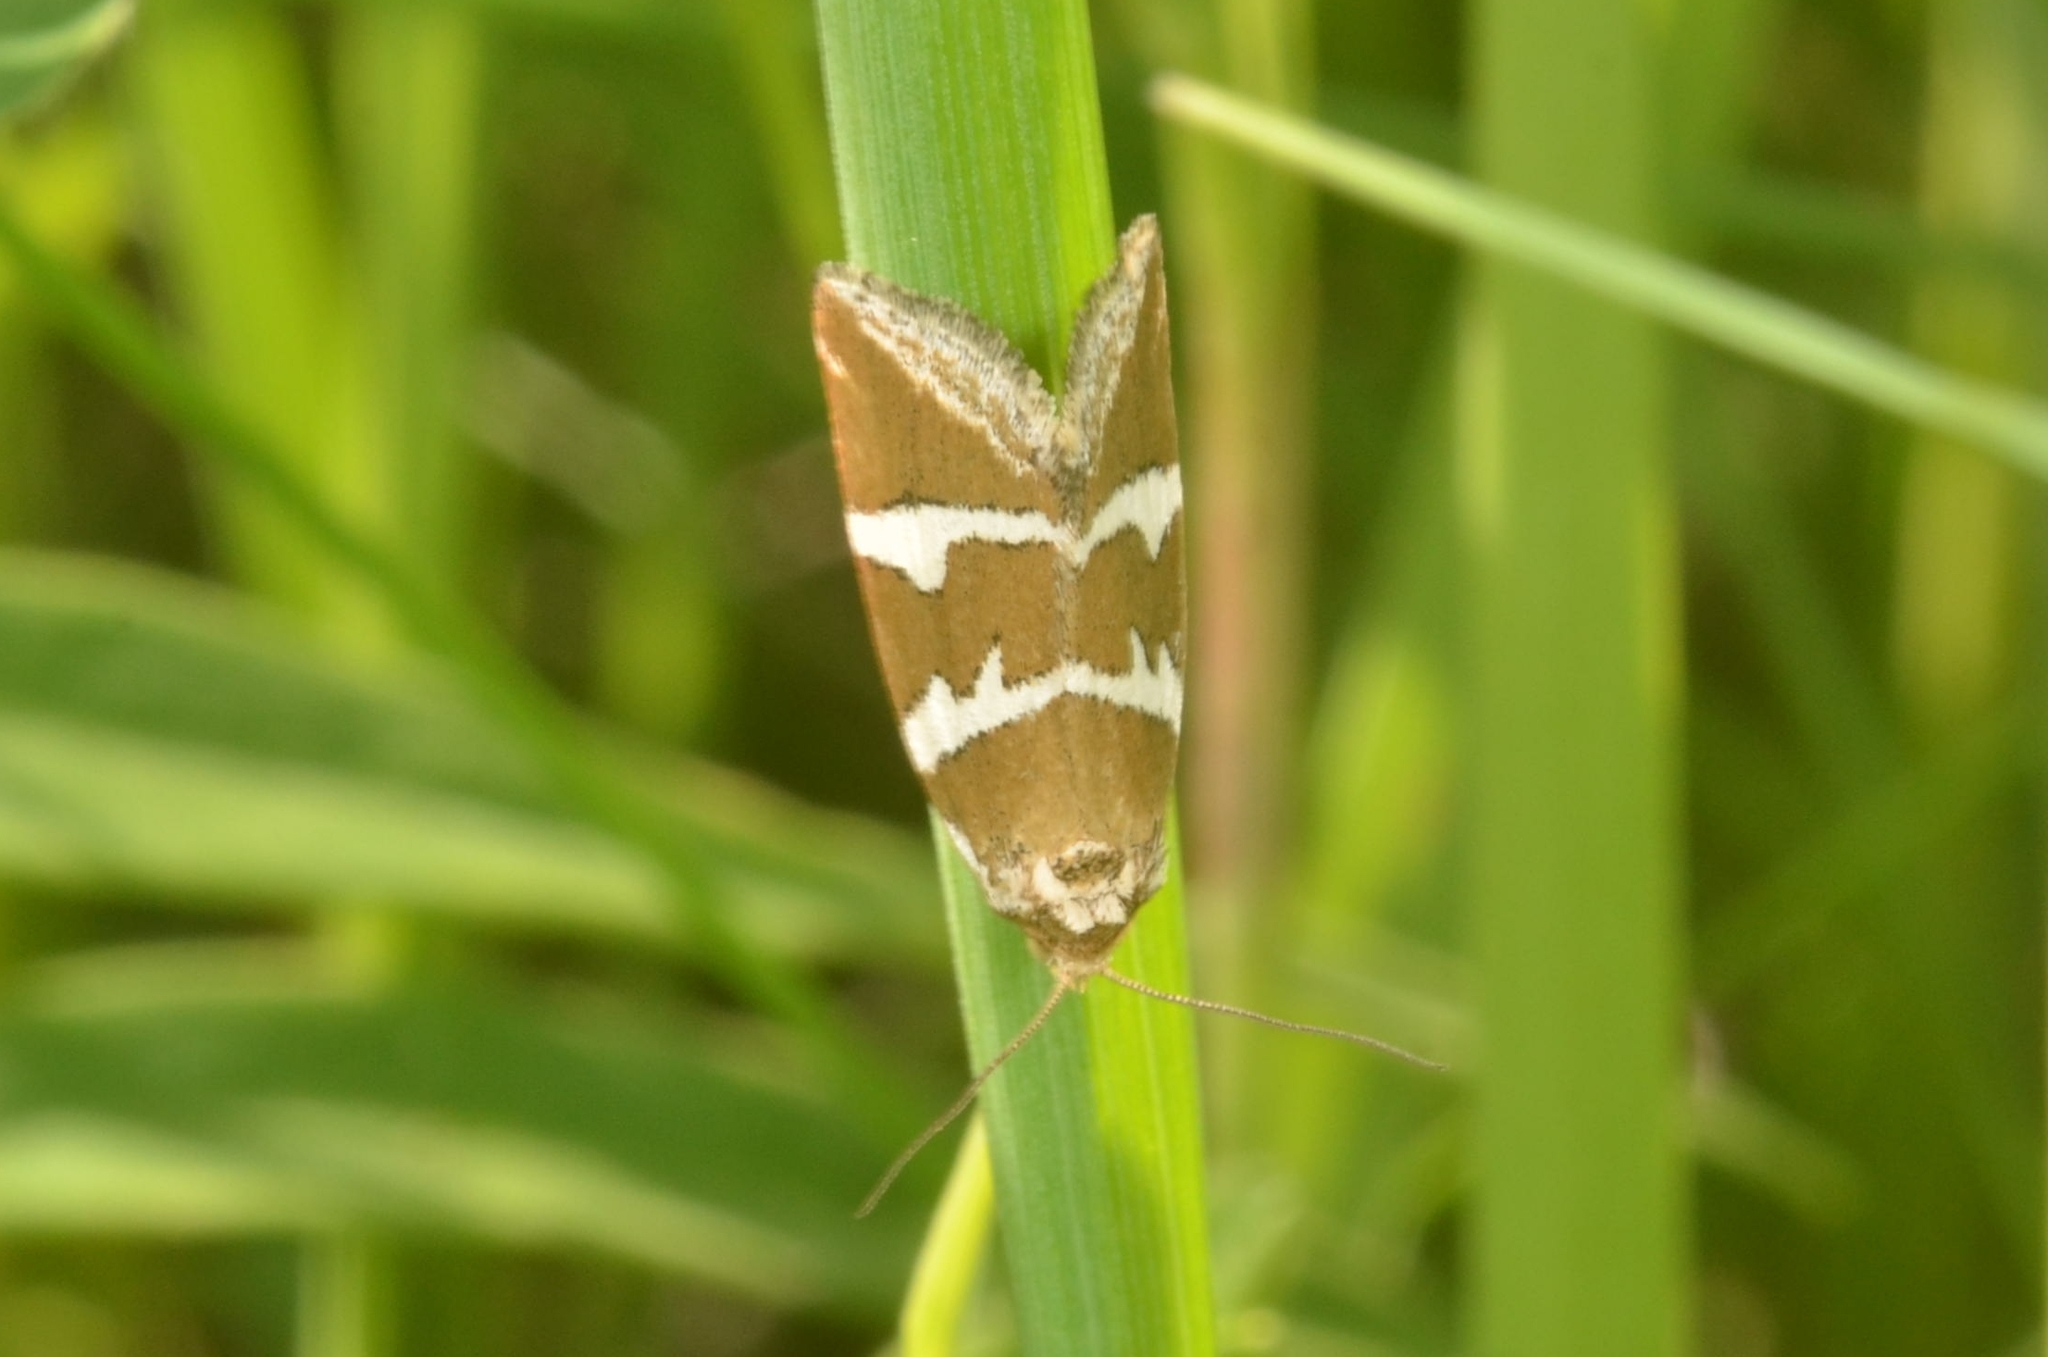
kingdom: Animalia
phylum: Arthropoda
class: Insecta
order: Lepidoptera
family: Noctuidae
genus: Deltote
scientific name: Deltote bankiana
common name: Silver barred
